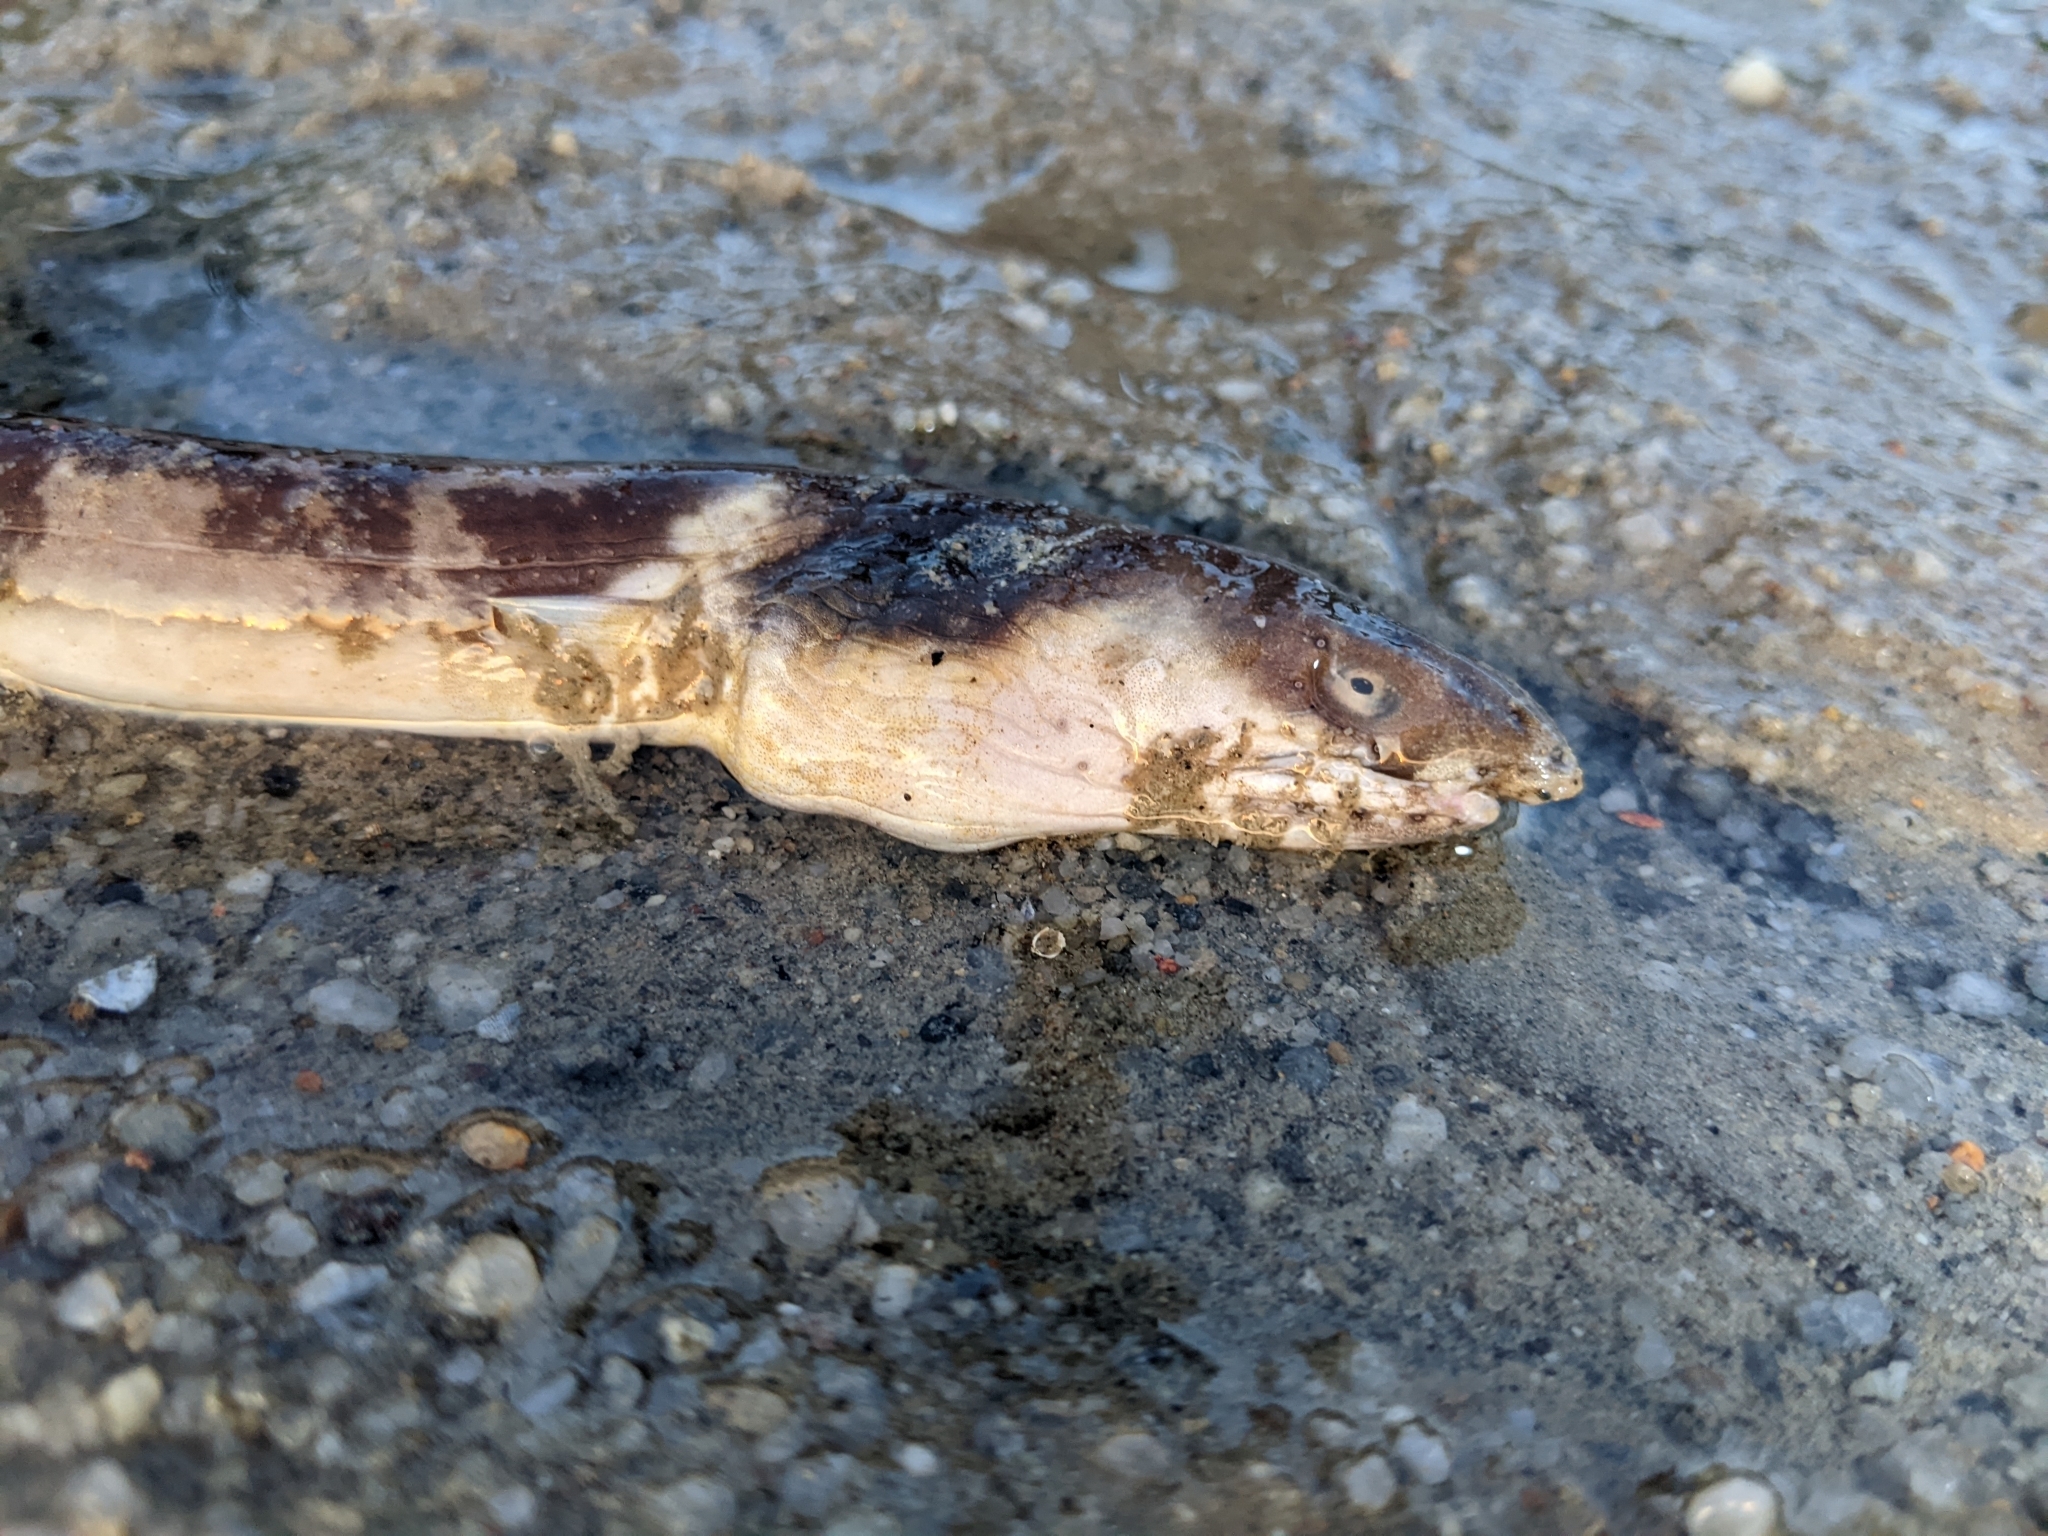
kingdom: Animalia
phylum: Chordata
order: Anguilliformes
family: Ophichthidae
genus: Ophichthus
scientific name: Ophichthus lithinus
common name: Evermann's snake eel
